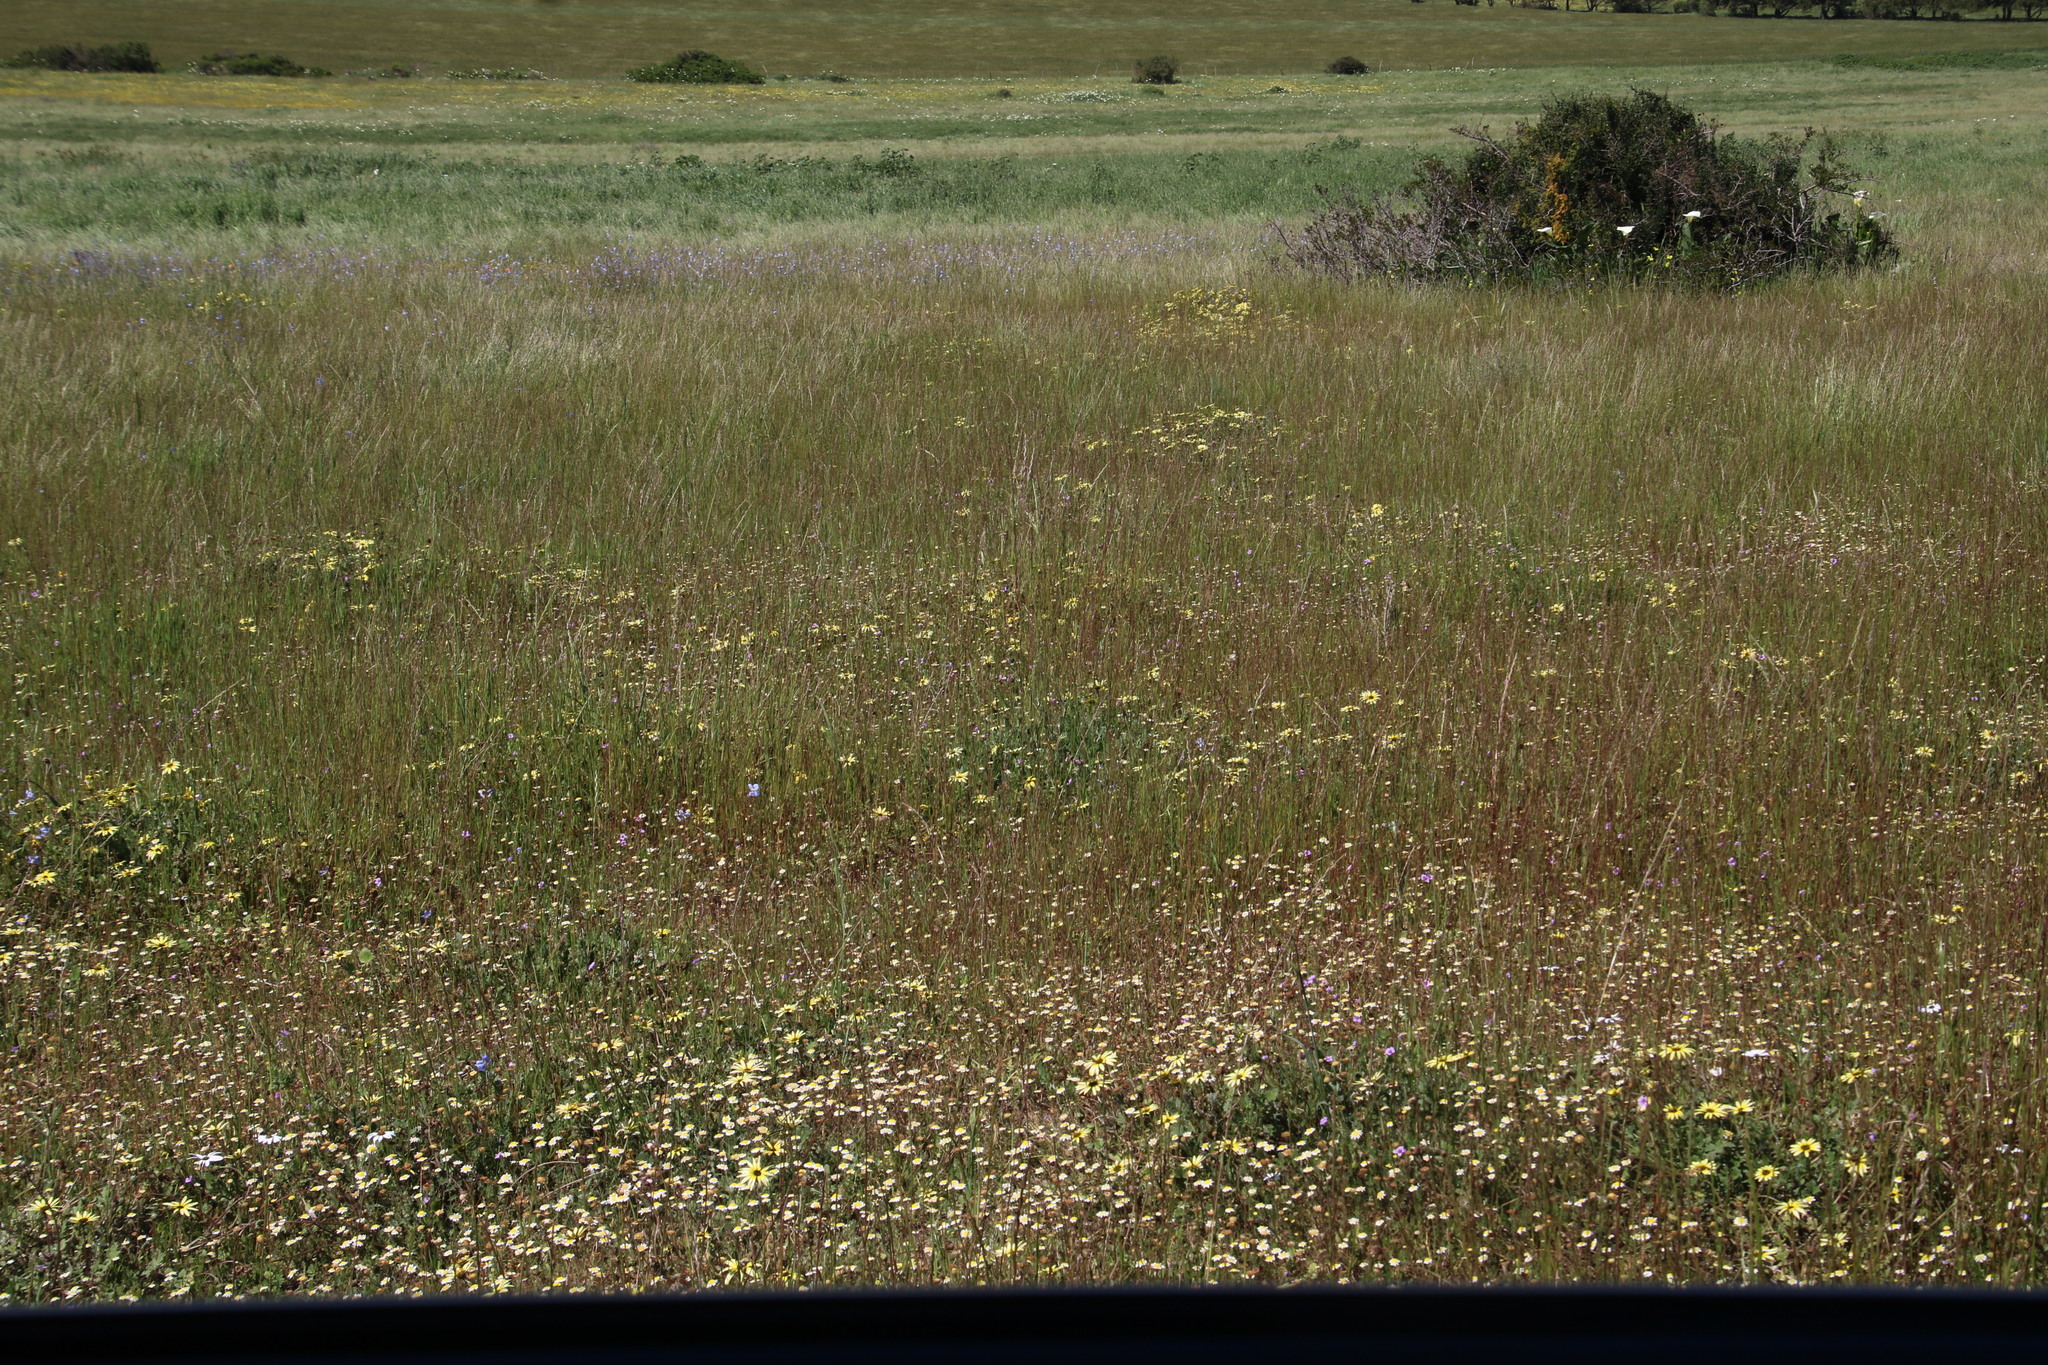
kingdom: Plantae
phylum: Tracheophyta
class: Magnoliopsida
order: Asterales
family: Asteraceae
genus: Cotula
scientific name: Cotula turbinata
